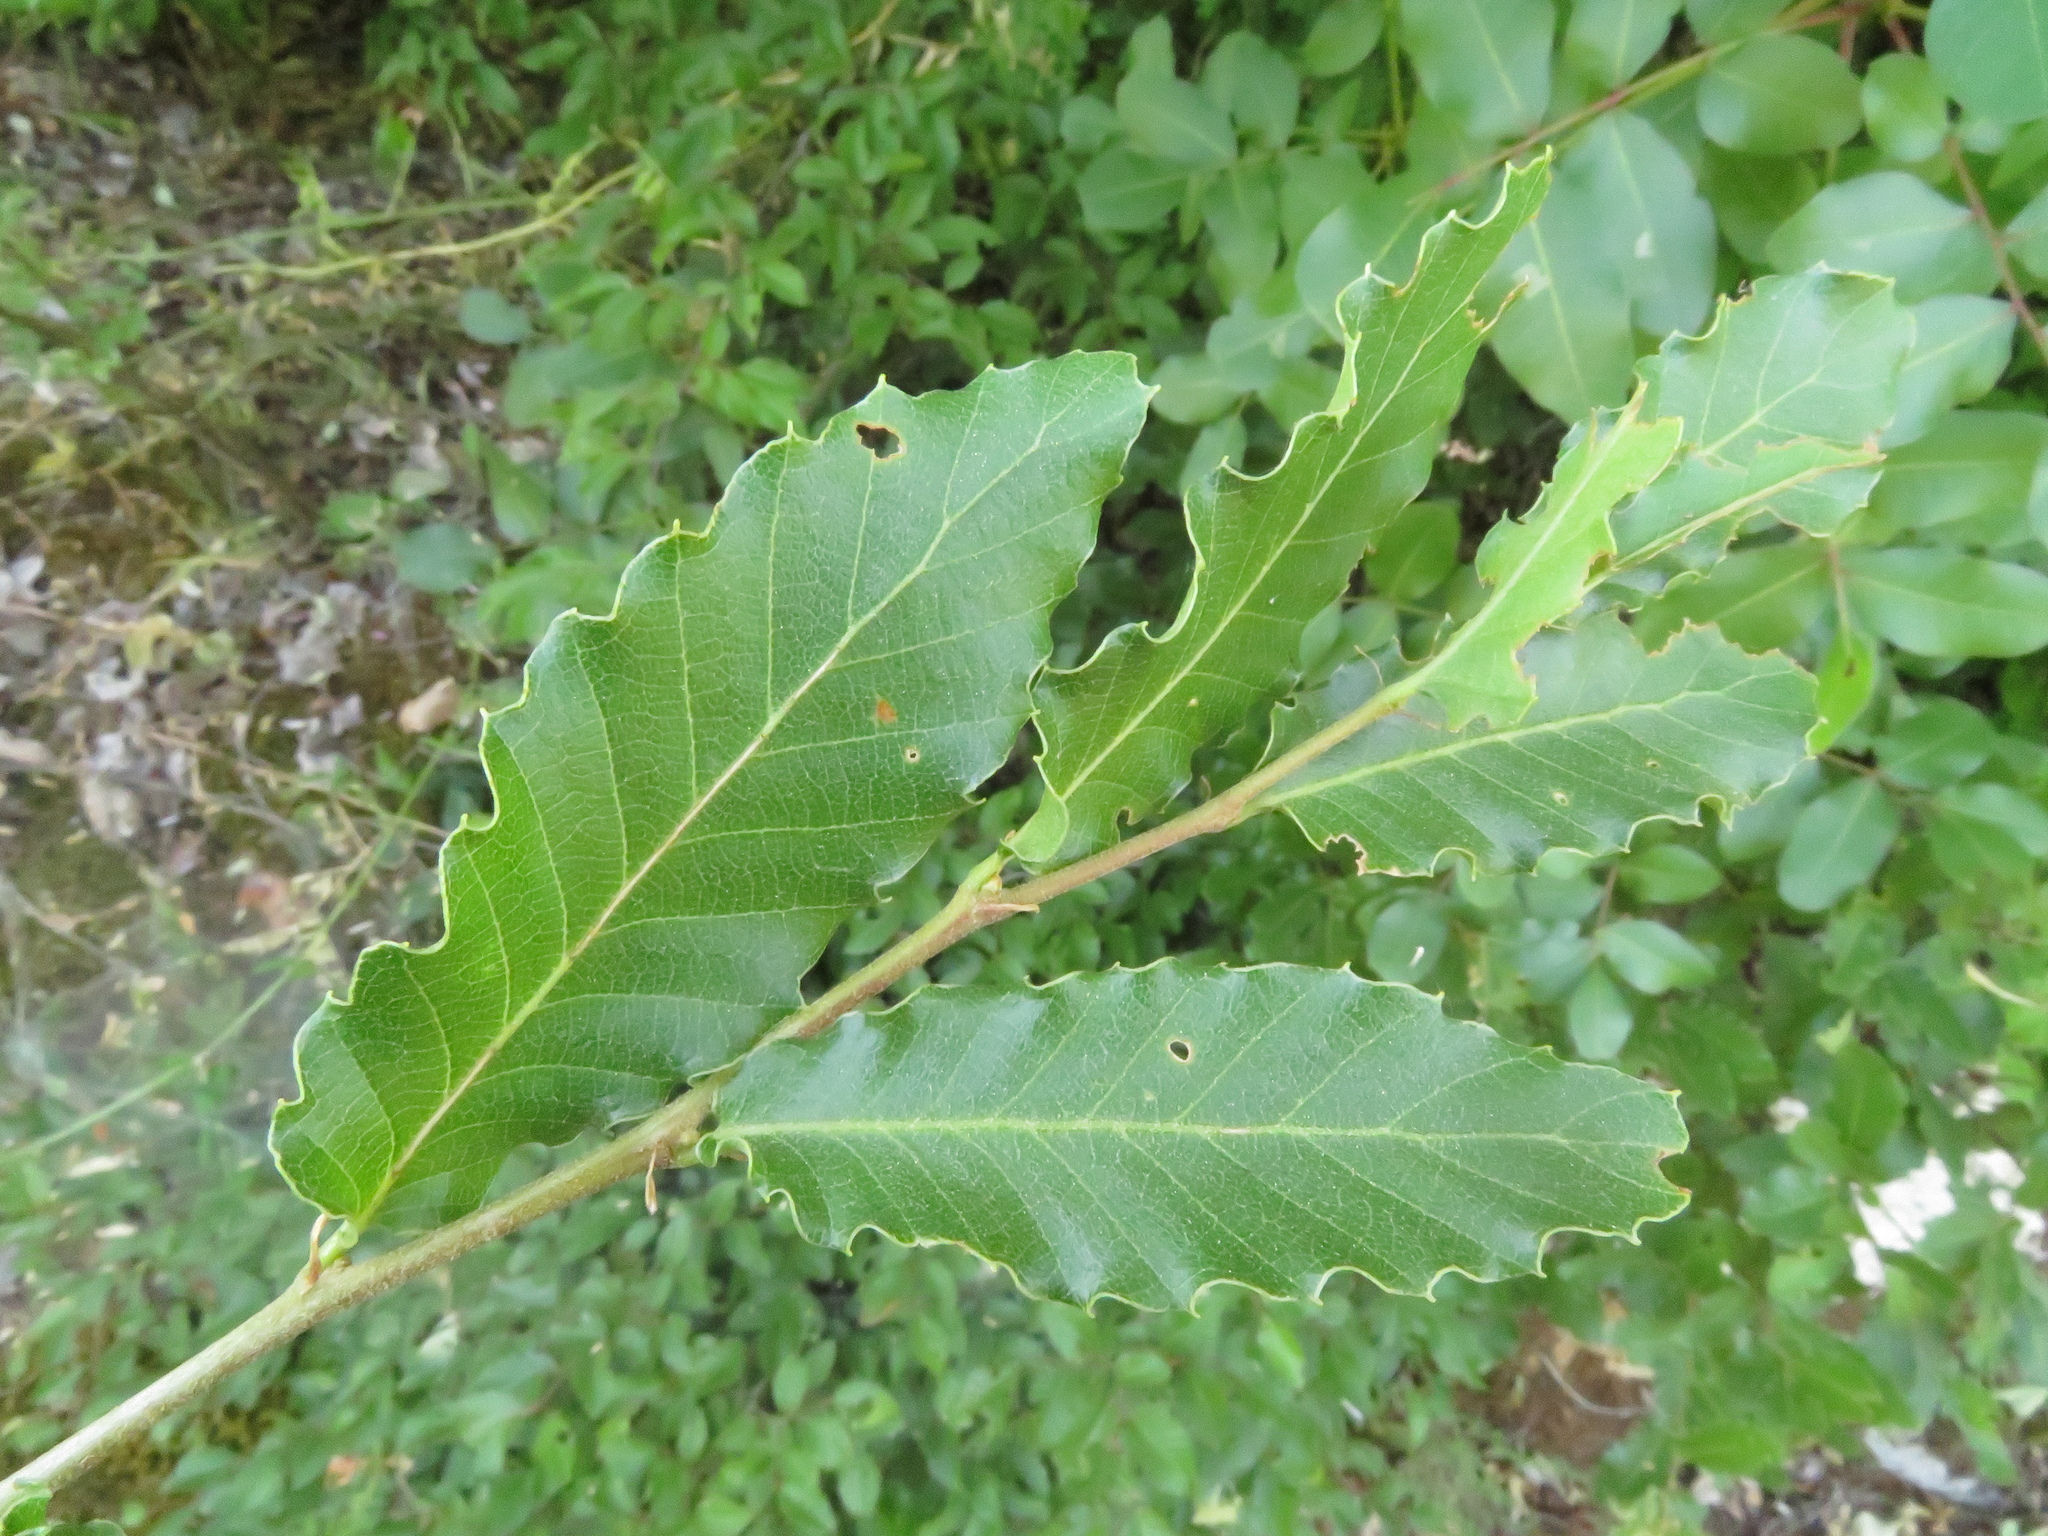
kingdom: Plantae
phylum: Tracheophyta
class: Magnoliopsida
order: Fagales
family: Fagaceae
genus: Quercus
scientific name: Quercus trojana
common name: Macedonian oak
